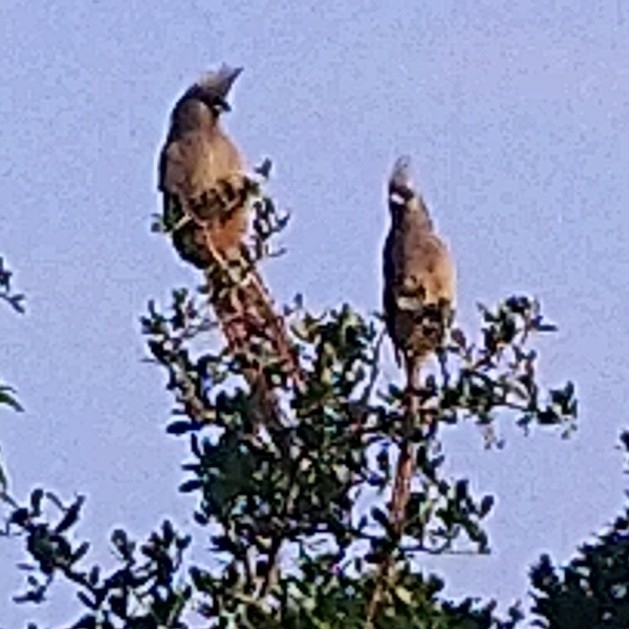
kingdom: Animalia
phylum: Chordata
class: Aves
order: Coliiformes
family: Coliidae
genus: Colius
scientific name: Colius striatus
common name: Speckled mousebird
